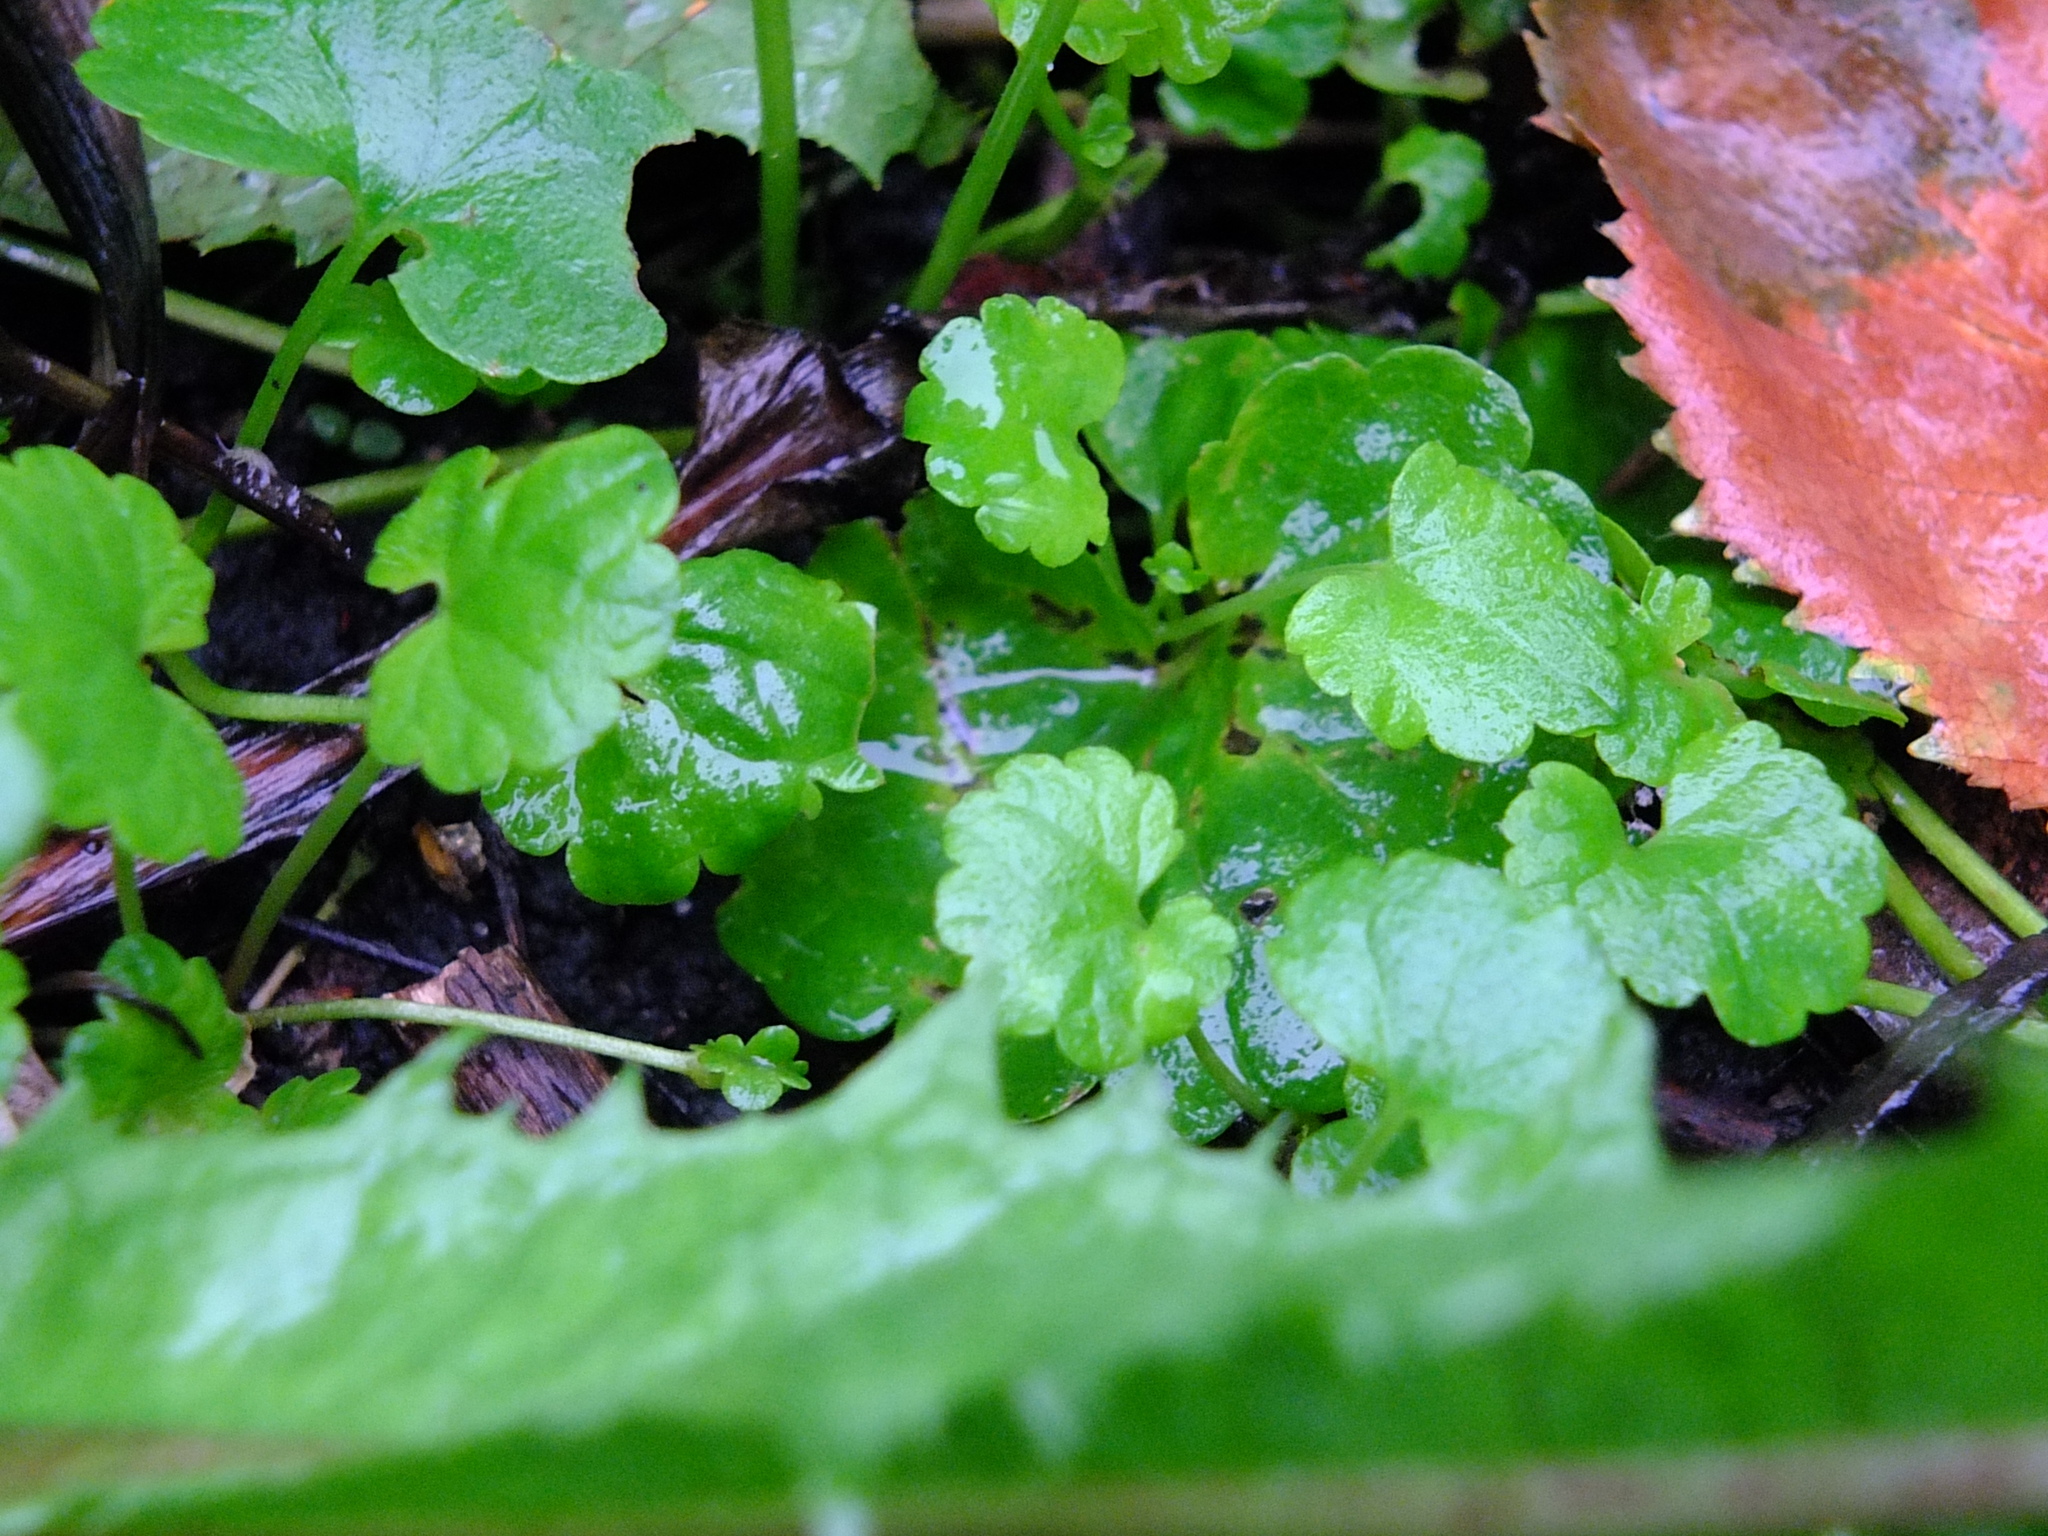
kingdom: Plantae
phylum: Tracheophyta
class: Magnoliopsida
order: Lamiales
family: Lamiaceae
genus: Glechoma
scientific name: Glechoma hederacea
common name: Ground ivy
